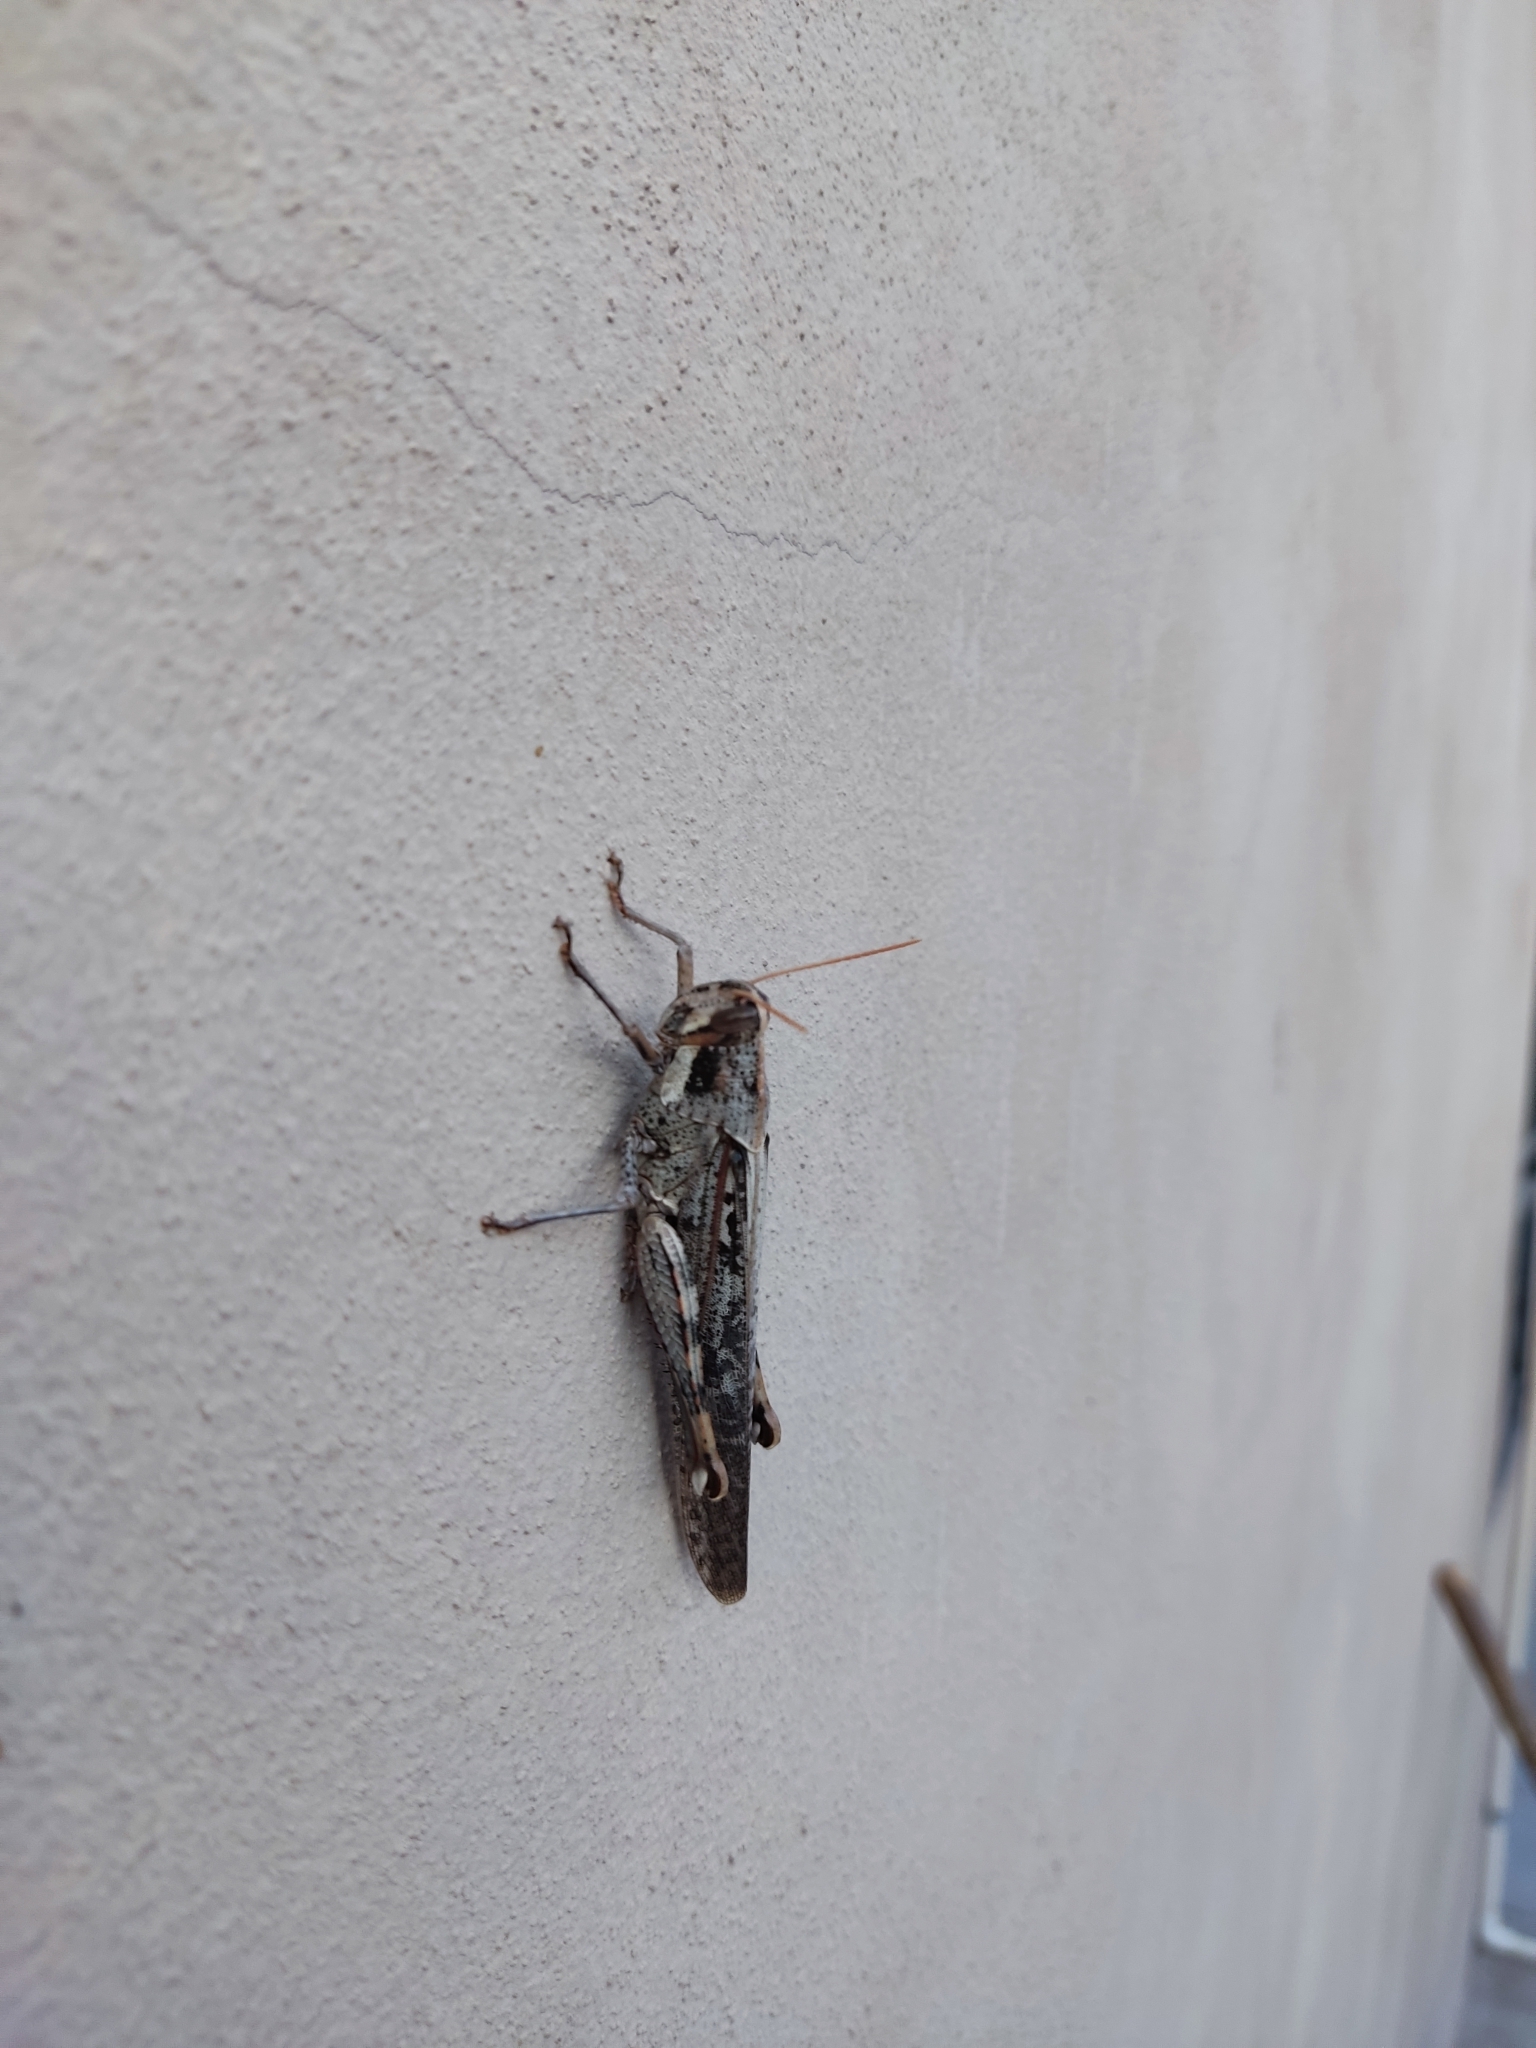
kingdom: Animalia
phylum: Arthropoda
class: Insecta
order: Orthoptera
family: Acrididae
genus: Schistocerca
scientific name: Schistocerca nitens
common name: Vagrant grasshopper
